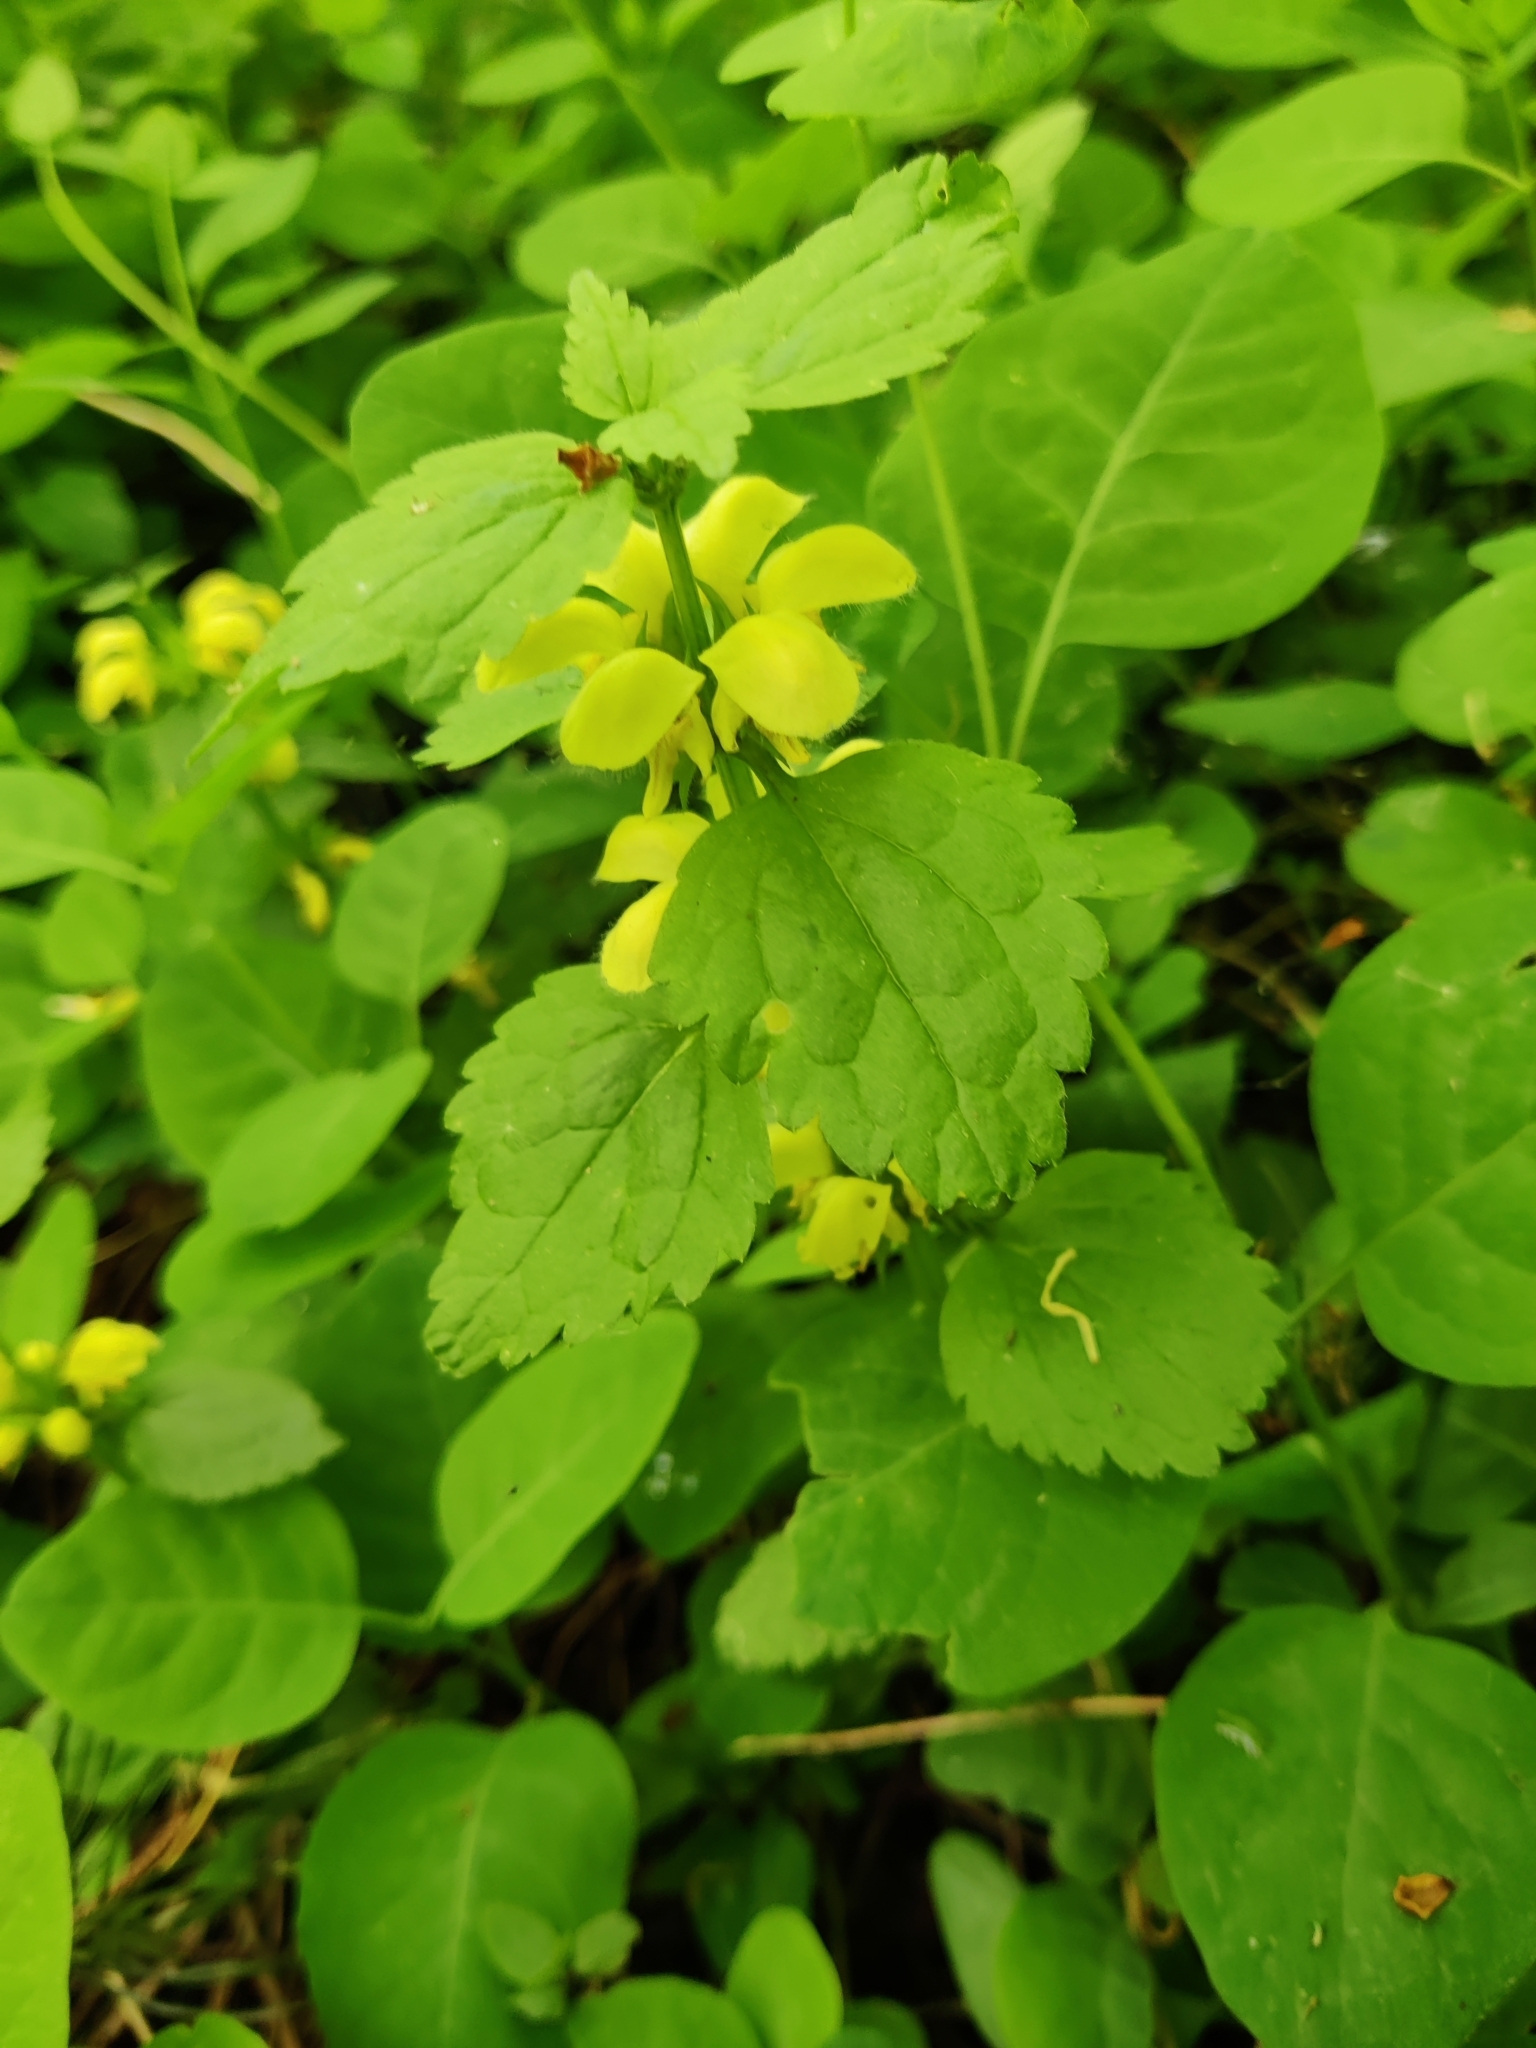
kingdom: Plantae
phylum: Tracheophyta
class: Magnoliopsida
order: Lamiales
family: Lamiaceae
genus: Lamium
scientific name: Lamium galeobdolon
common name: Yellow archangel
